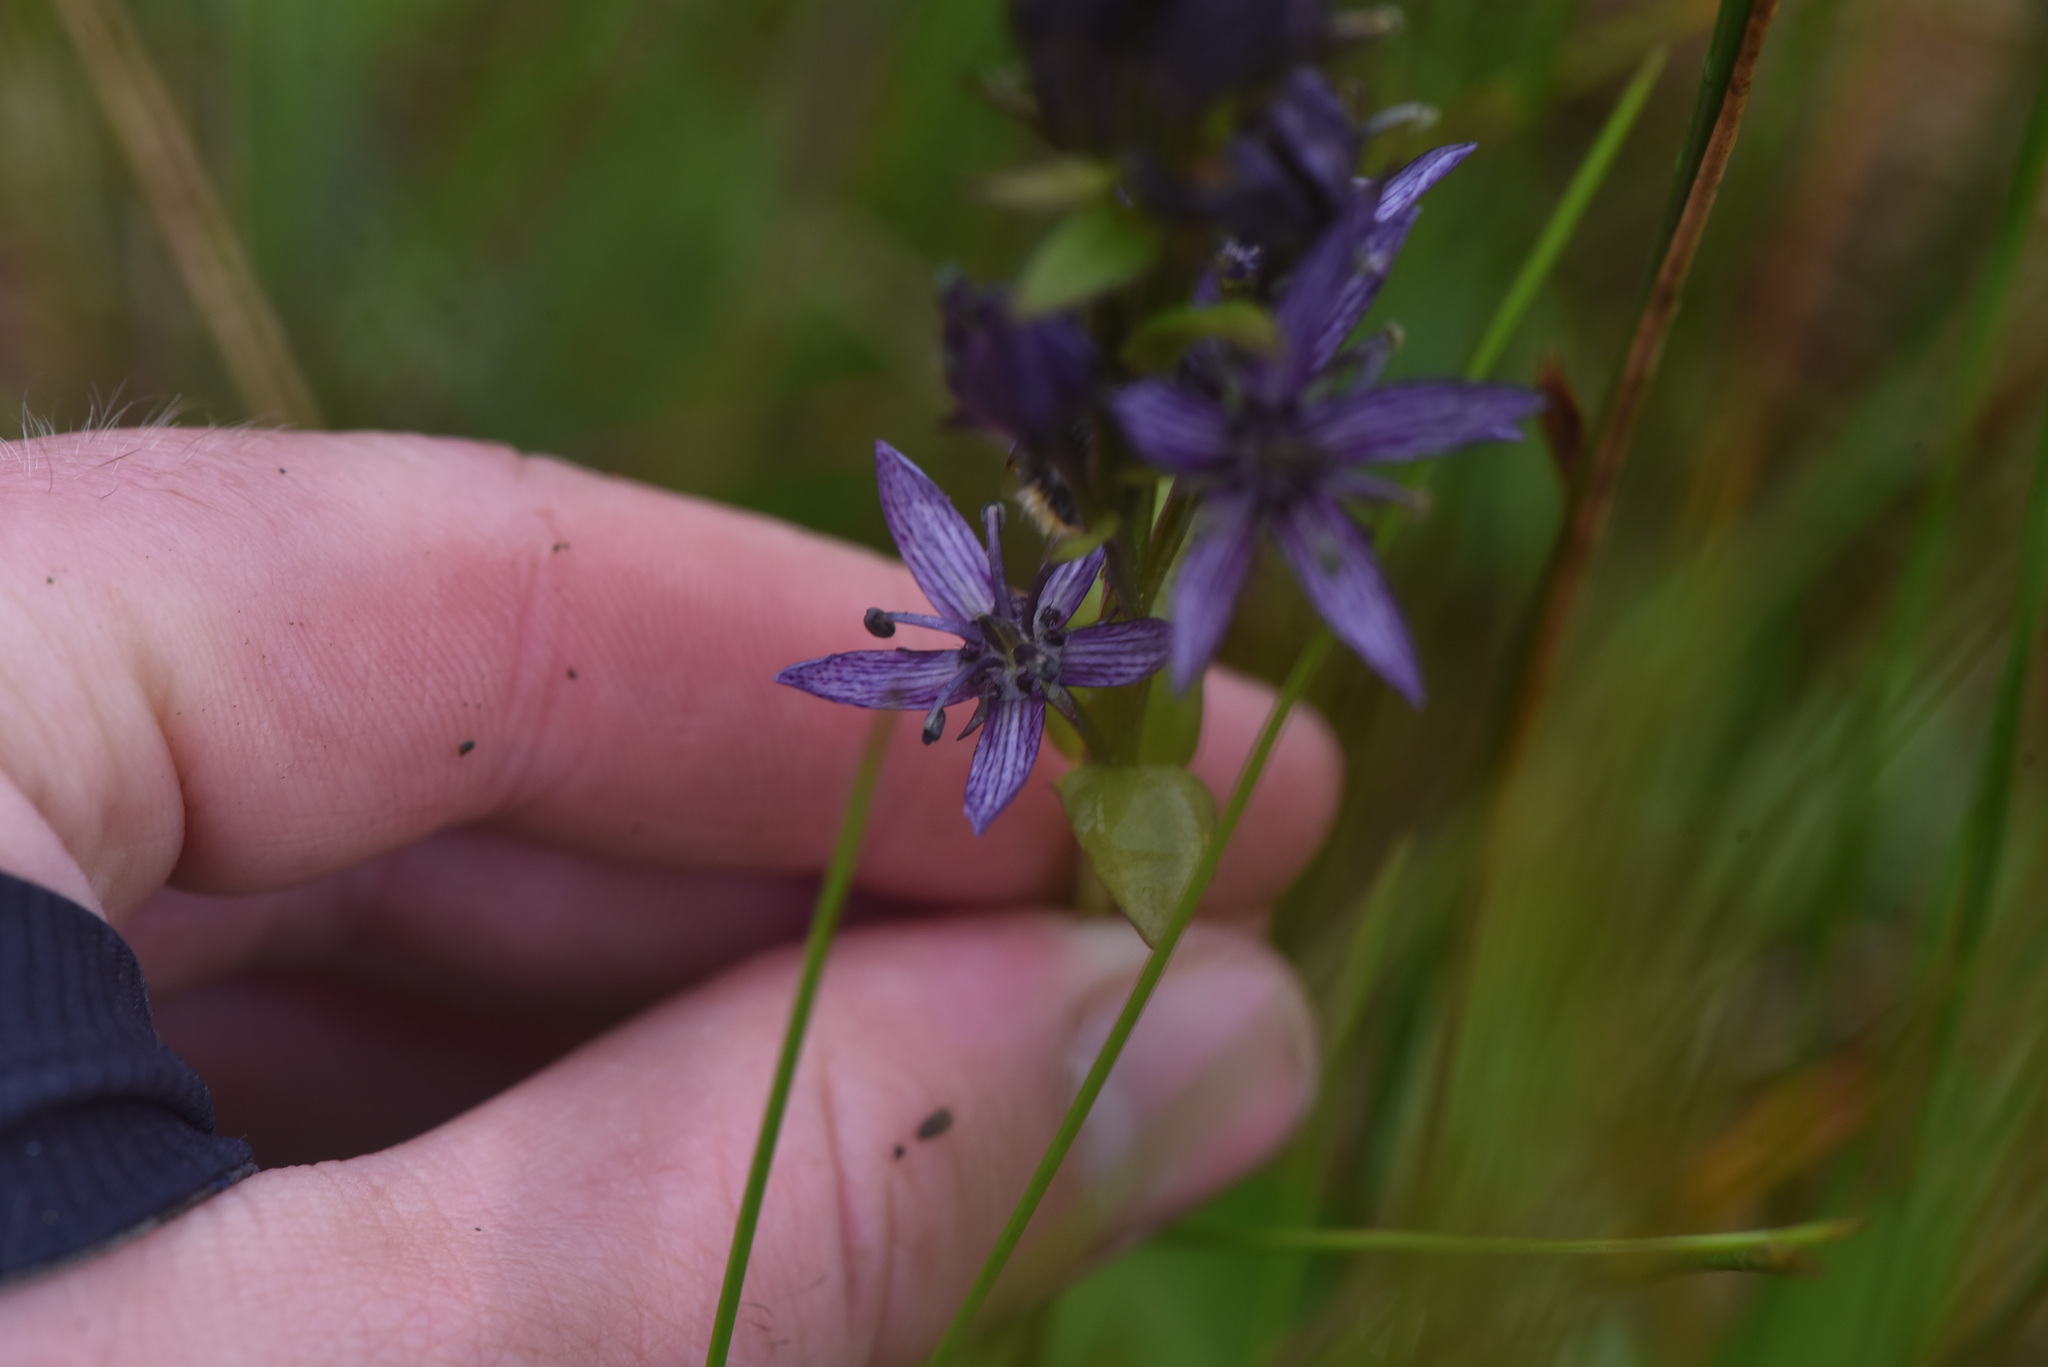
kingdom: Plantae
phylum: Tracheophyta
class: Magnoliopsida
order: Gentianales
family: Gentianaceae
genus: Swertia
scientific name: Swertia perennis
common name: Alpine bog swertia
